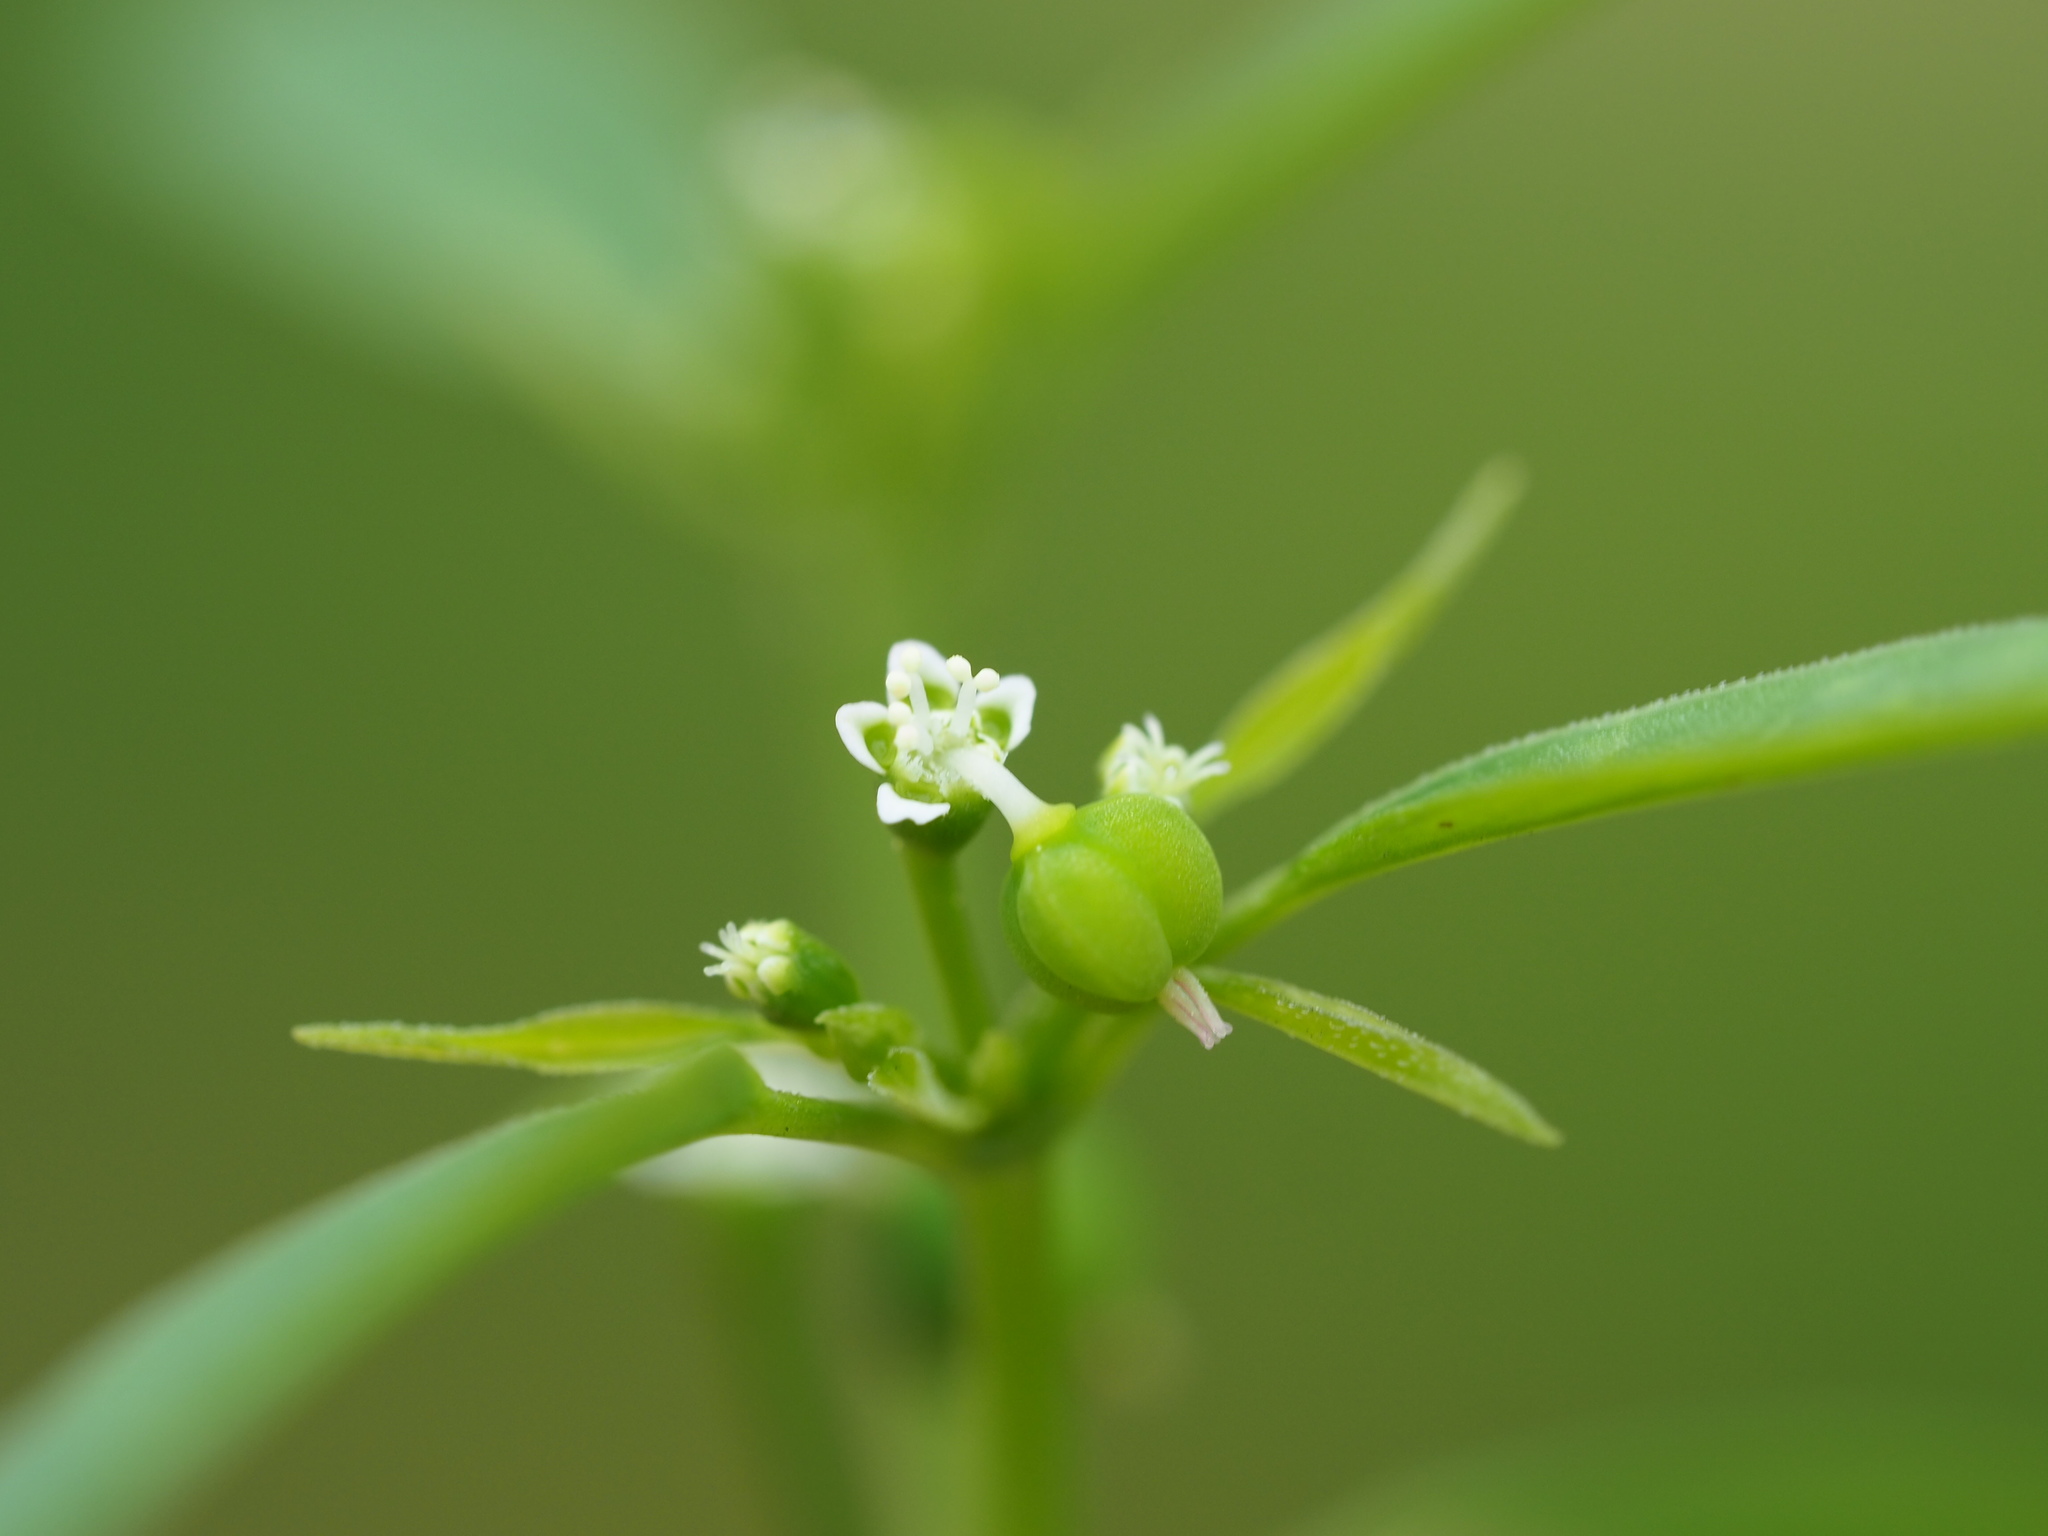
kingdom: Plantae
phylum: Tracheophyta
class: Magnoliopsida
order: Malpighiales
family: Euphorbiaceae
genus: Euphorbia
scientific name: Euphorbia graminea
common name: Grassleaf spurge
